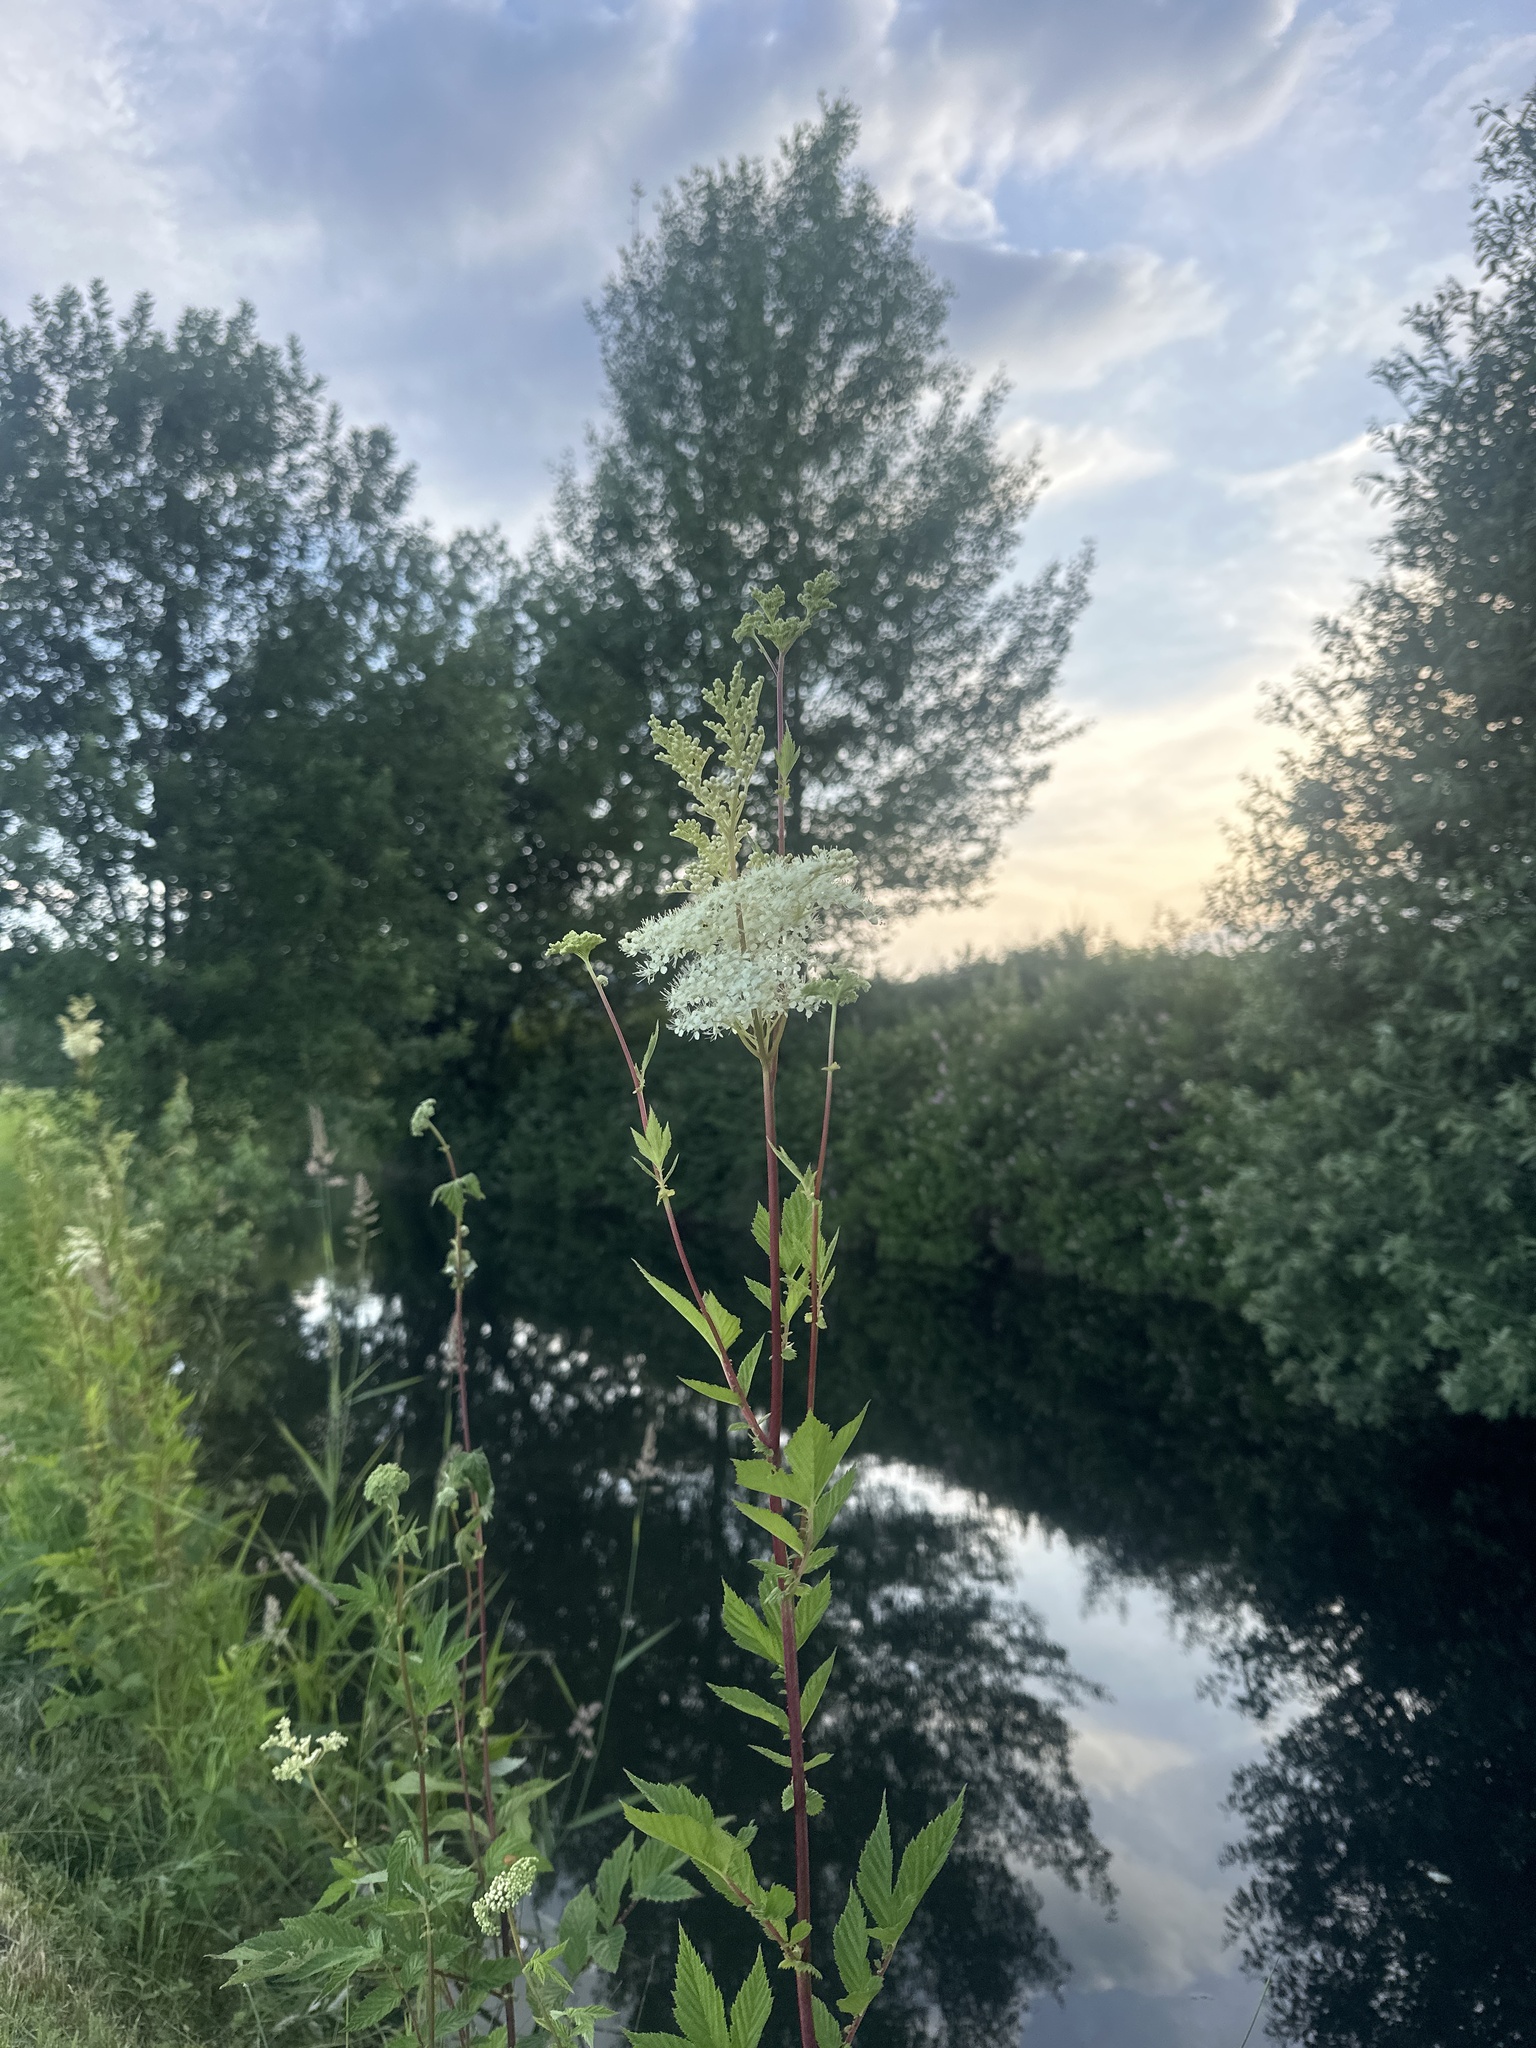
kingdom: Plantae
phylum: Tracheophyta
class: Magnoliopsida
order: Rosales
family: Rosaceae
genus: Filipendula
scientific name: Filipendula ulmaria
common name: Meadowsweet
